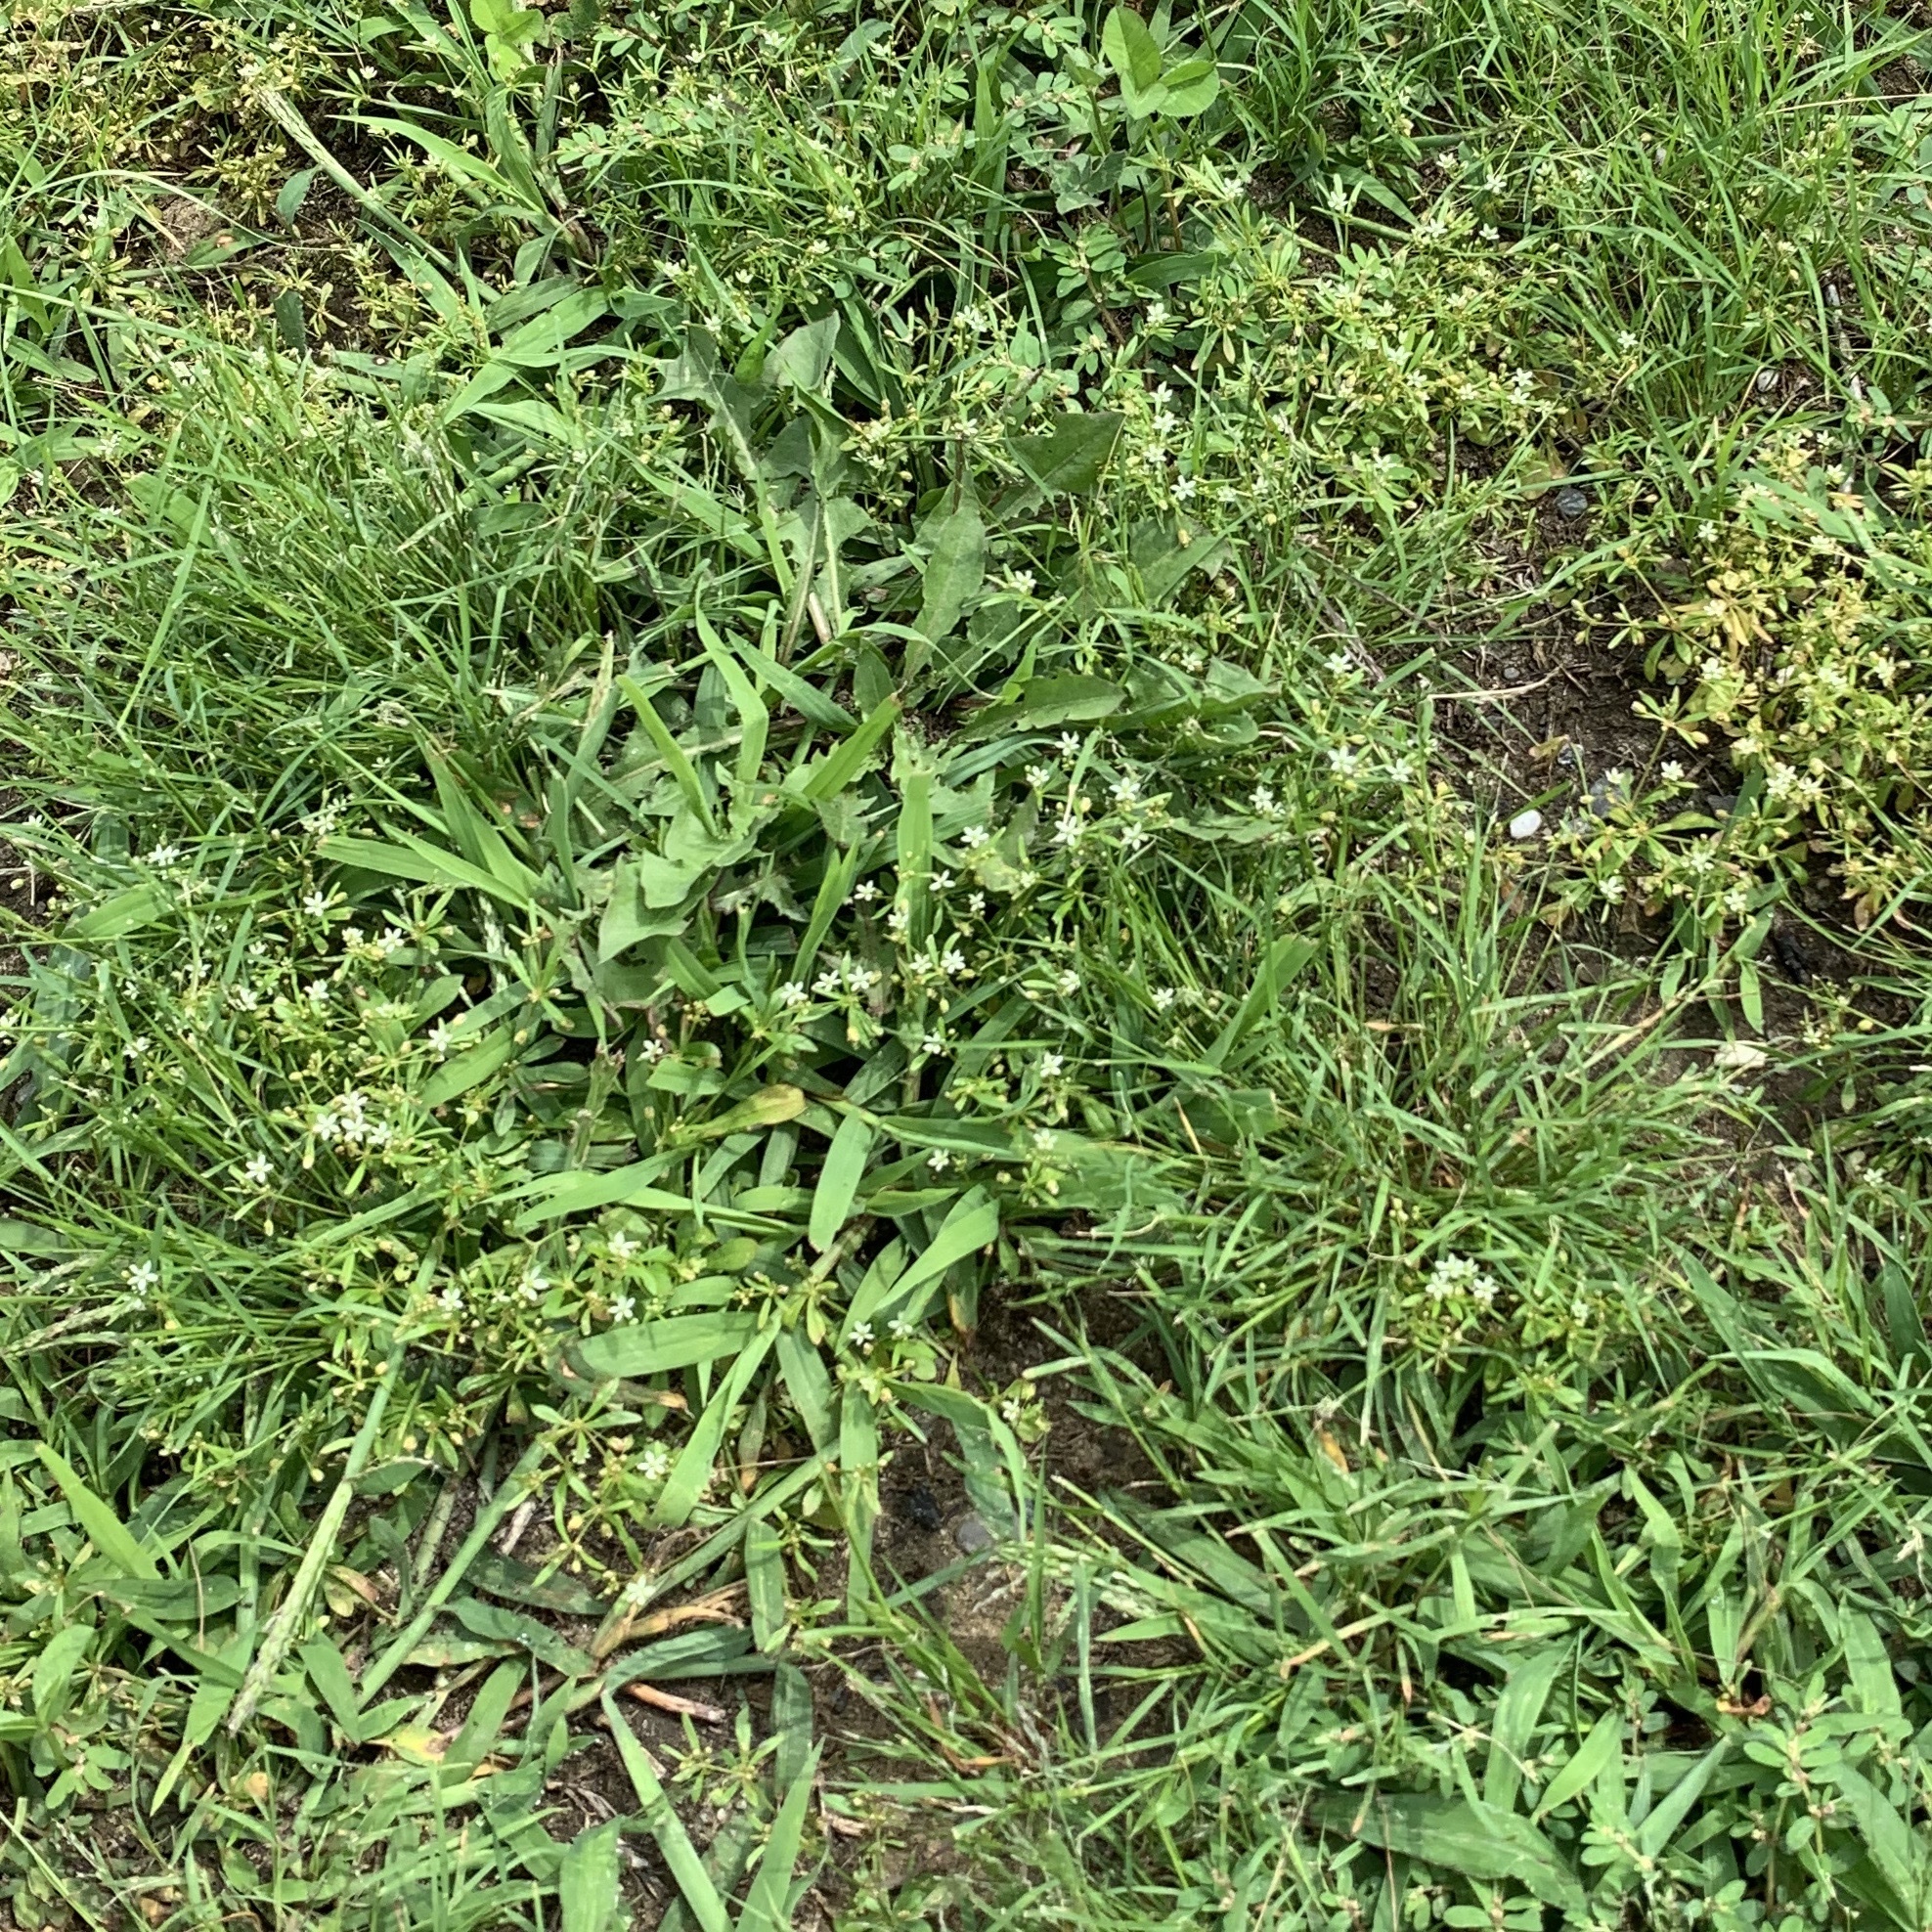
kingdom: Plantae
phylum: Tracheophyta
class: Magnoliopsida
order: Caryophyllales
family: Molluginaceae
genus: Mollugo
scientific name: Mollugo verticillata
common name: Green carpetweed
